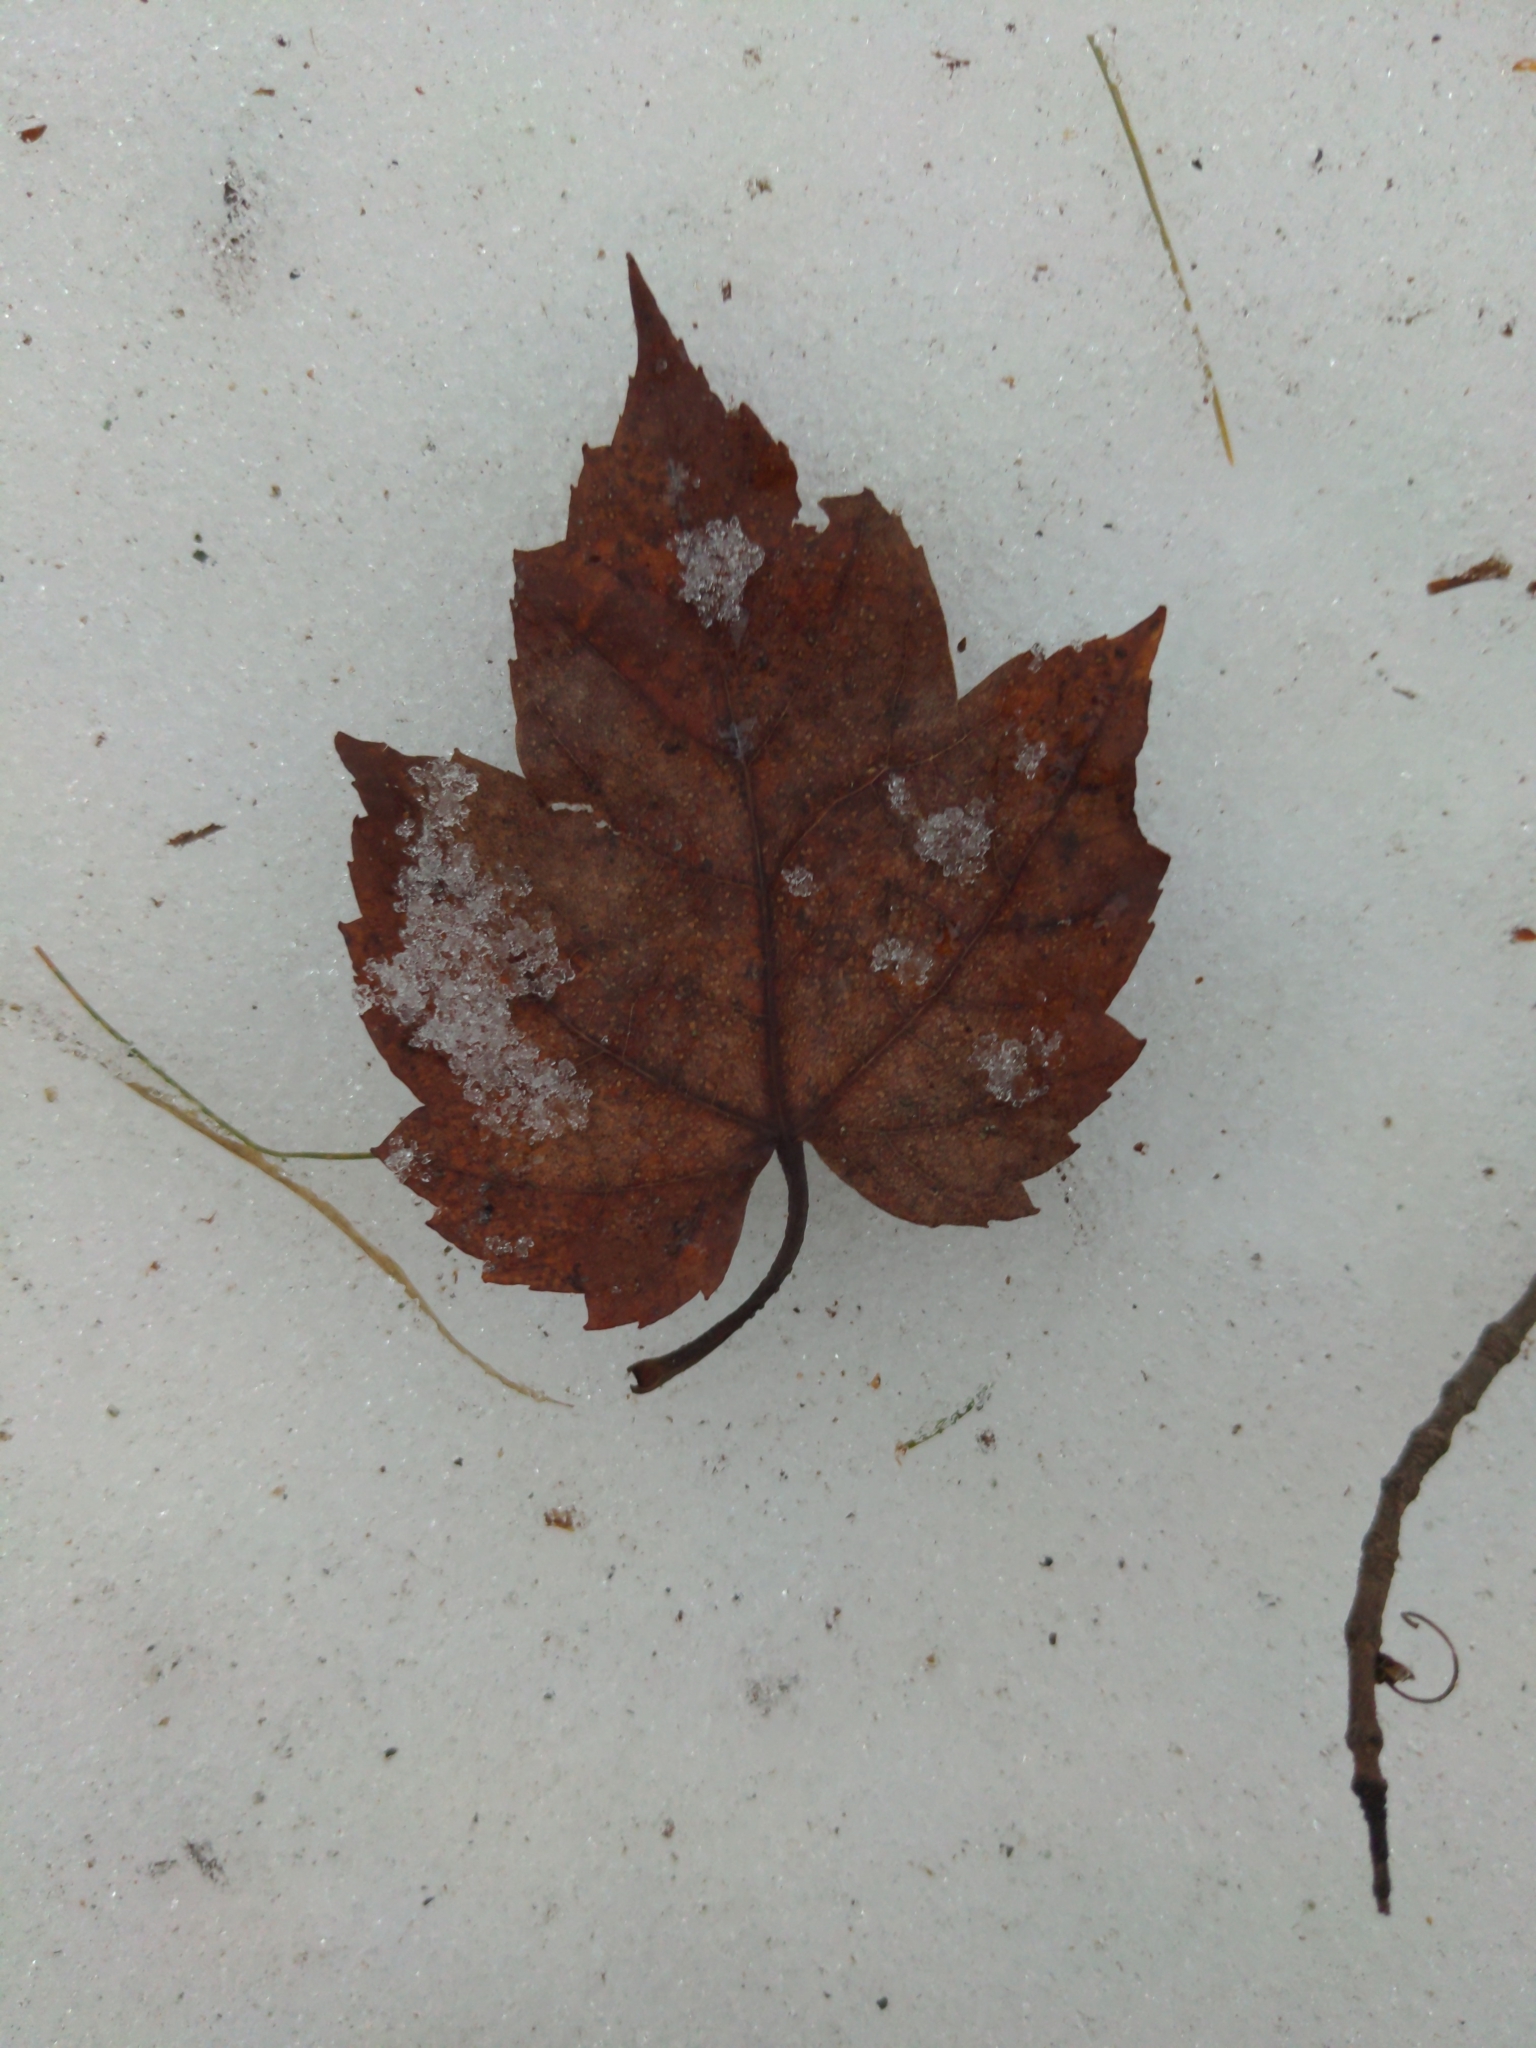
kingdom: Plantae
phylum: Tracheophyta
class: Magnoliopsida
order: Sapindales
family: Sapindaceae
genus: Acer
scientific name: Acer rubrum
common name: Red maple
